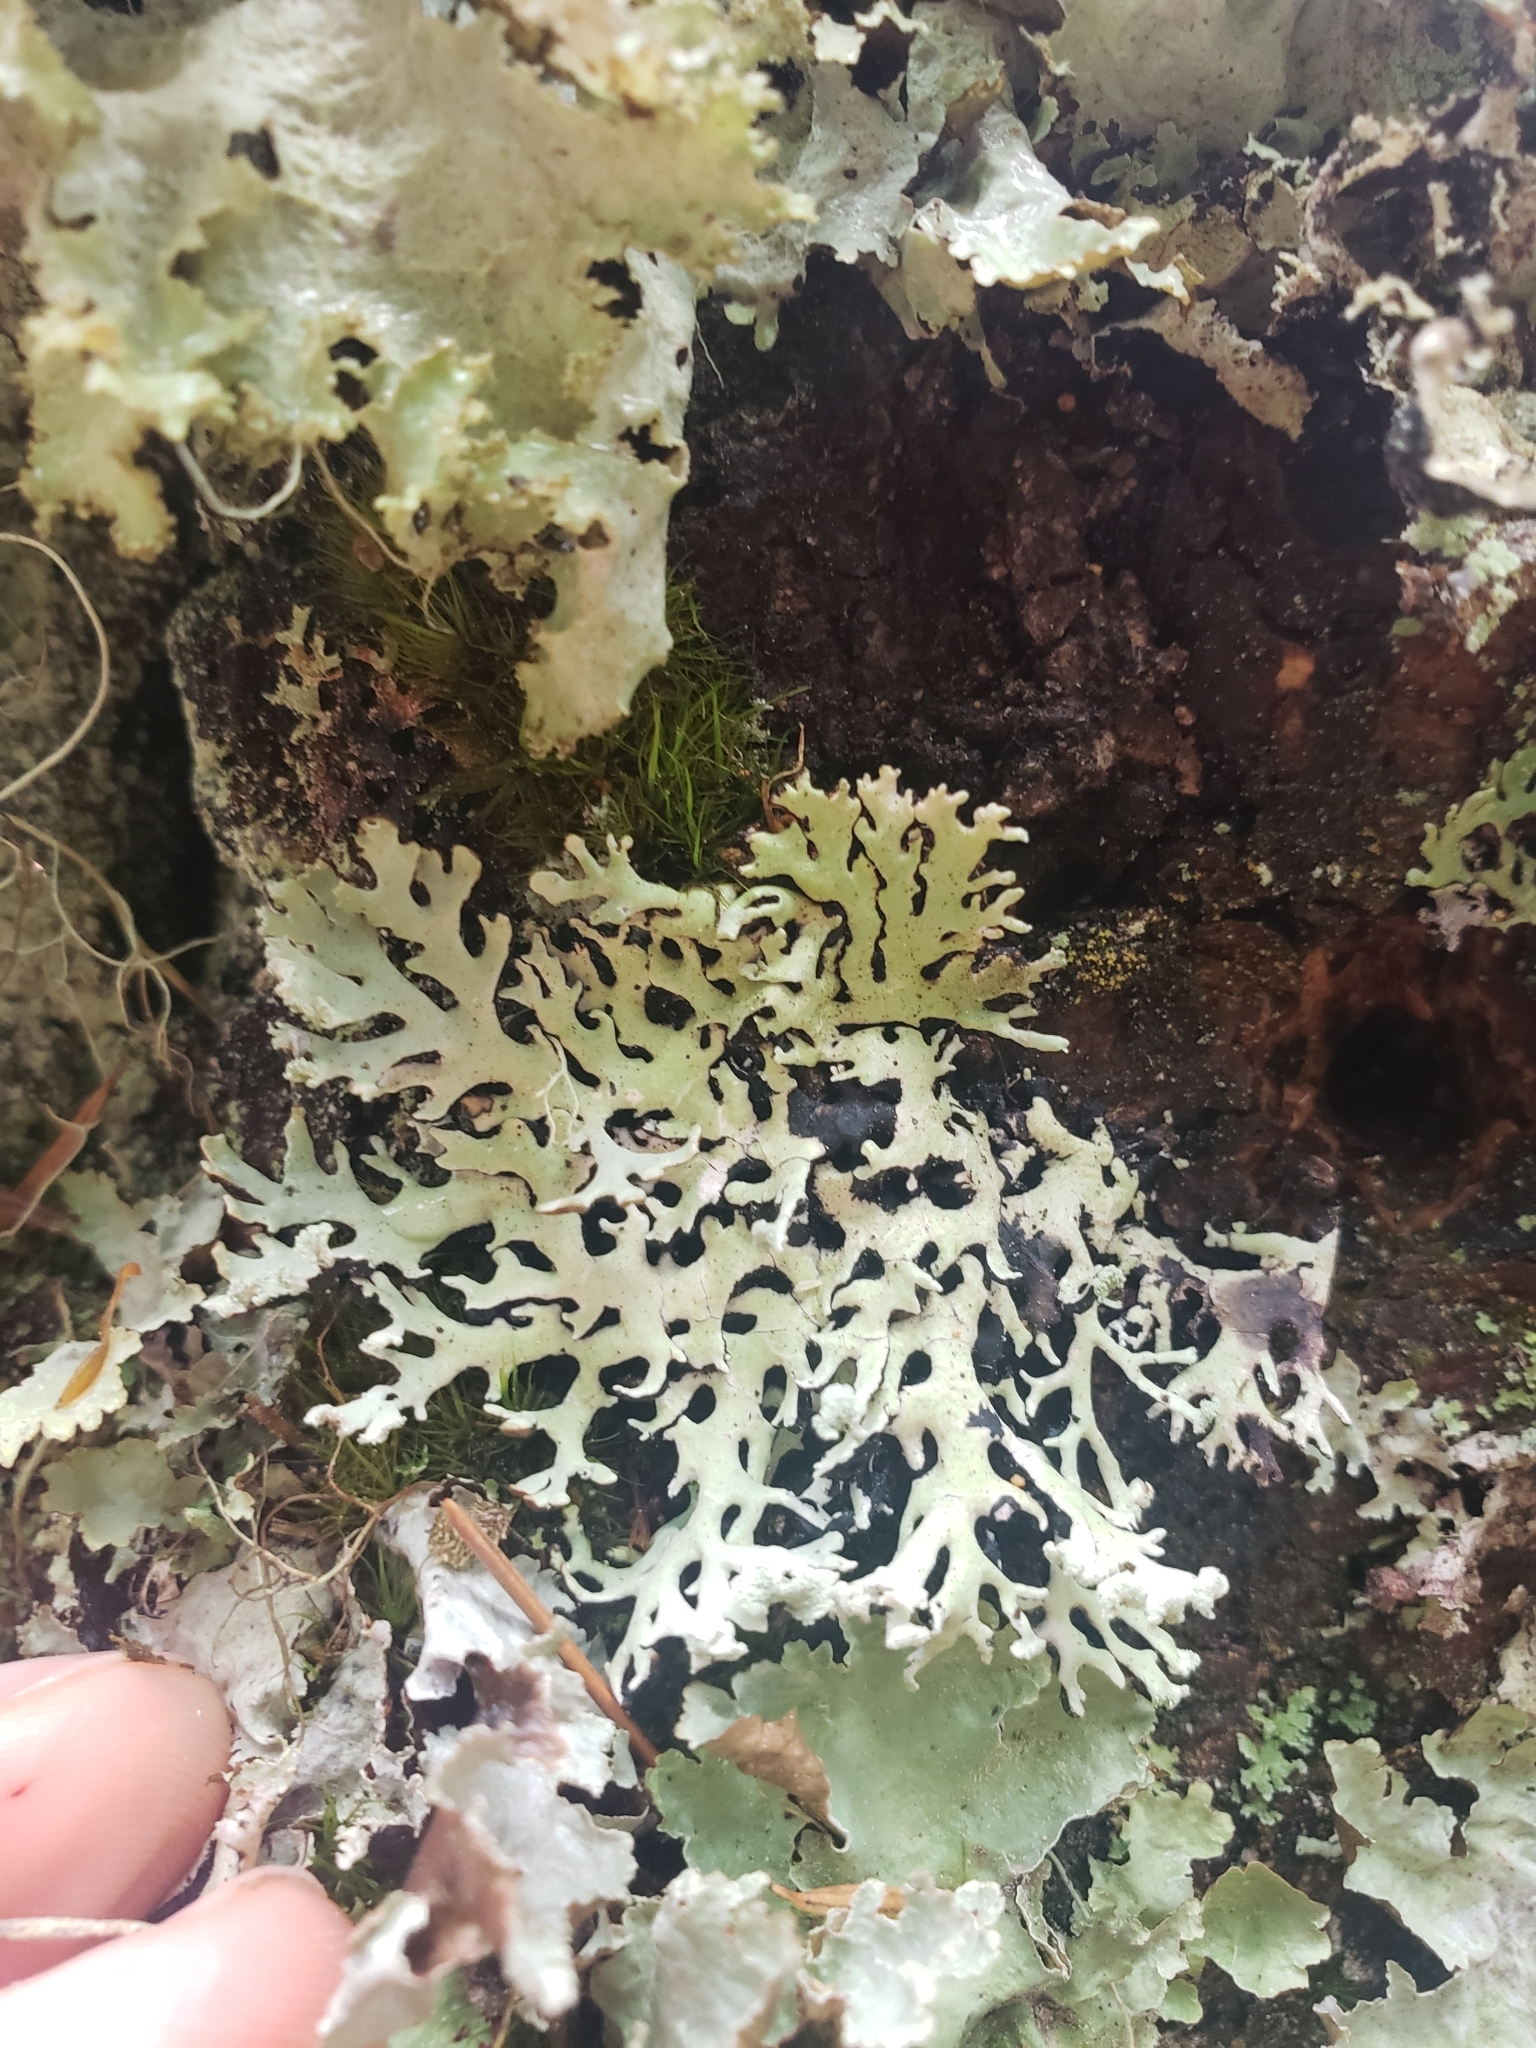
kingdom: Fungi
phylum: Ascomycota
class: Lecanoromycetes
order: Lecanorales
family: Parmeliaceae
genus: Hypogymnia
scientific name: Hypogymnia physodes
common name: Dark crottle
